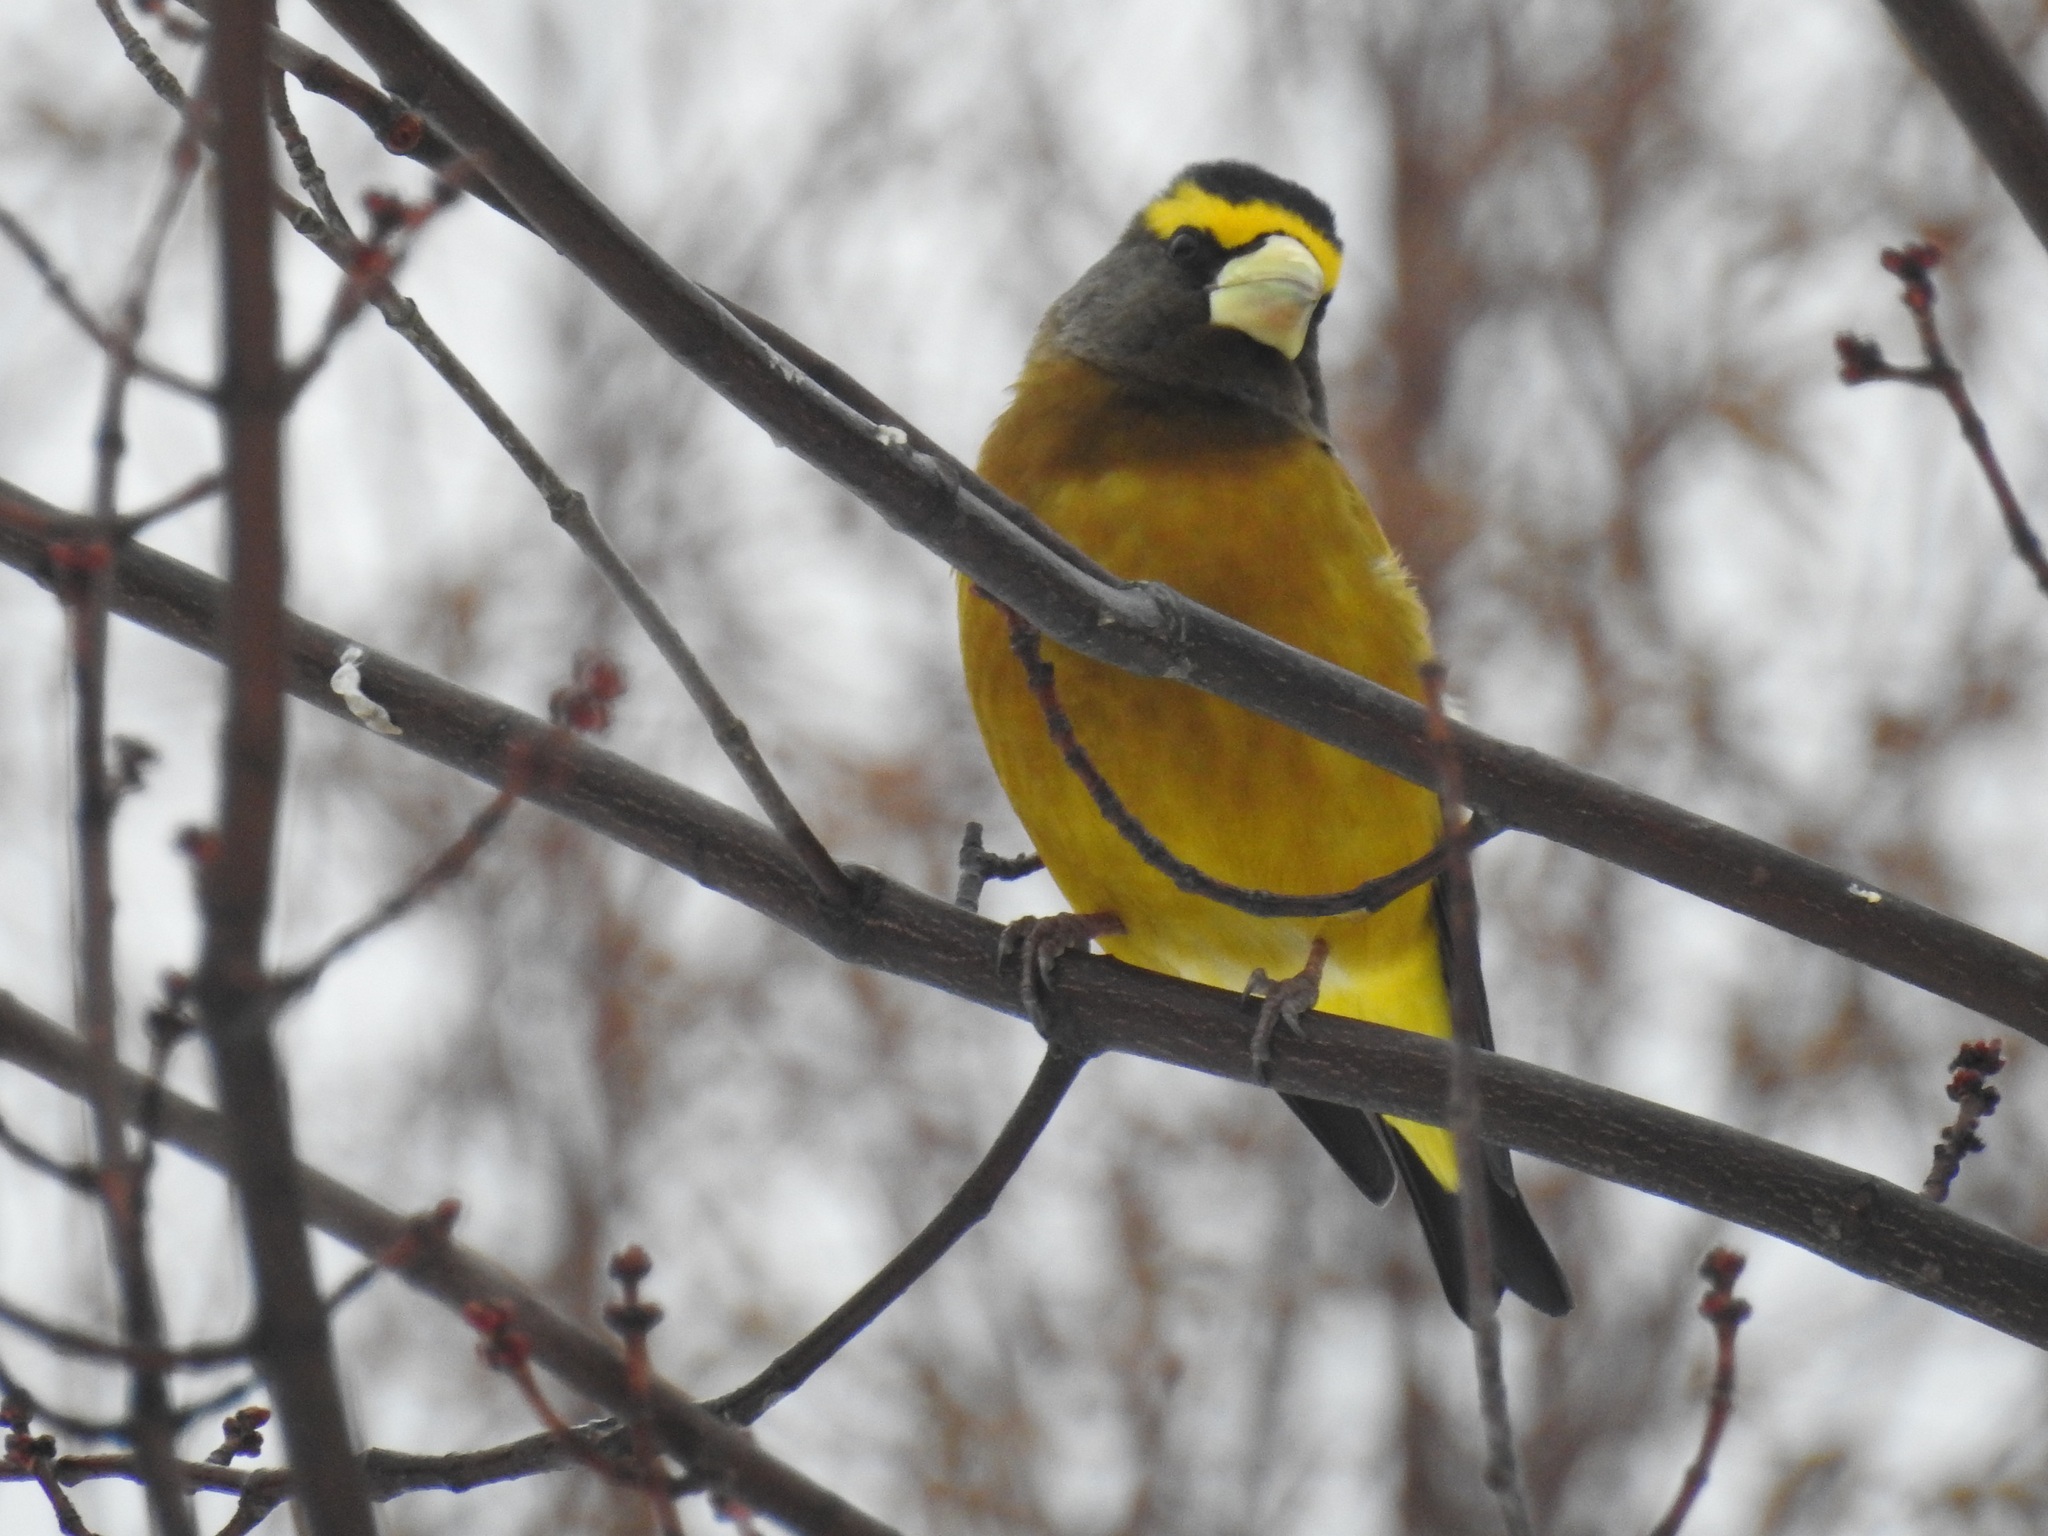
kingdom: Animalia
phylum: Chordata
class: Aves
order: Passeriformes
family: Fringillidae
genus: Hesperiphona
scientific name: Hesperiphona vespertina
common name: Evening grosbeak
